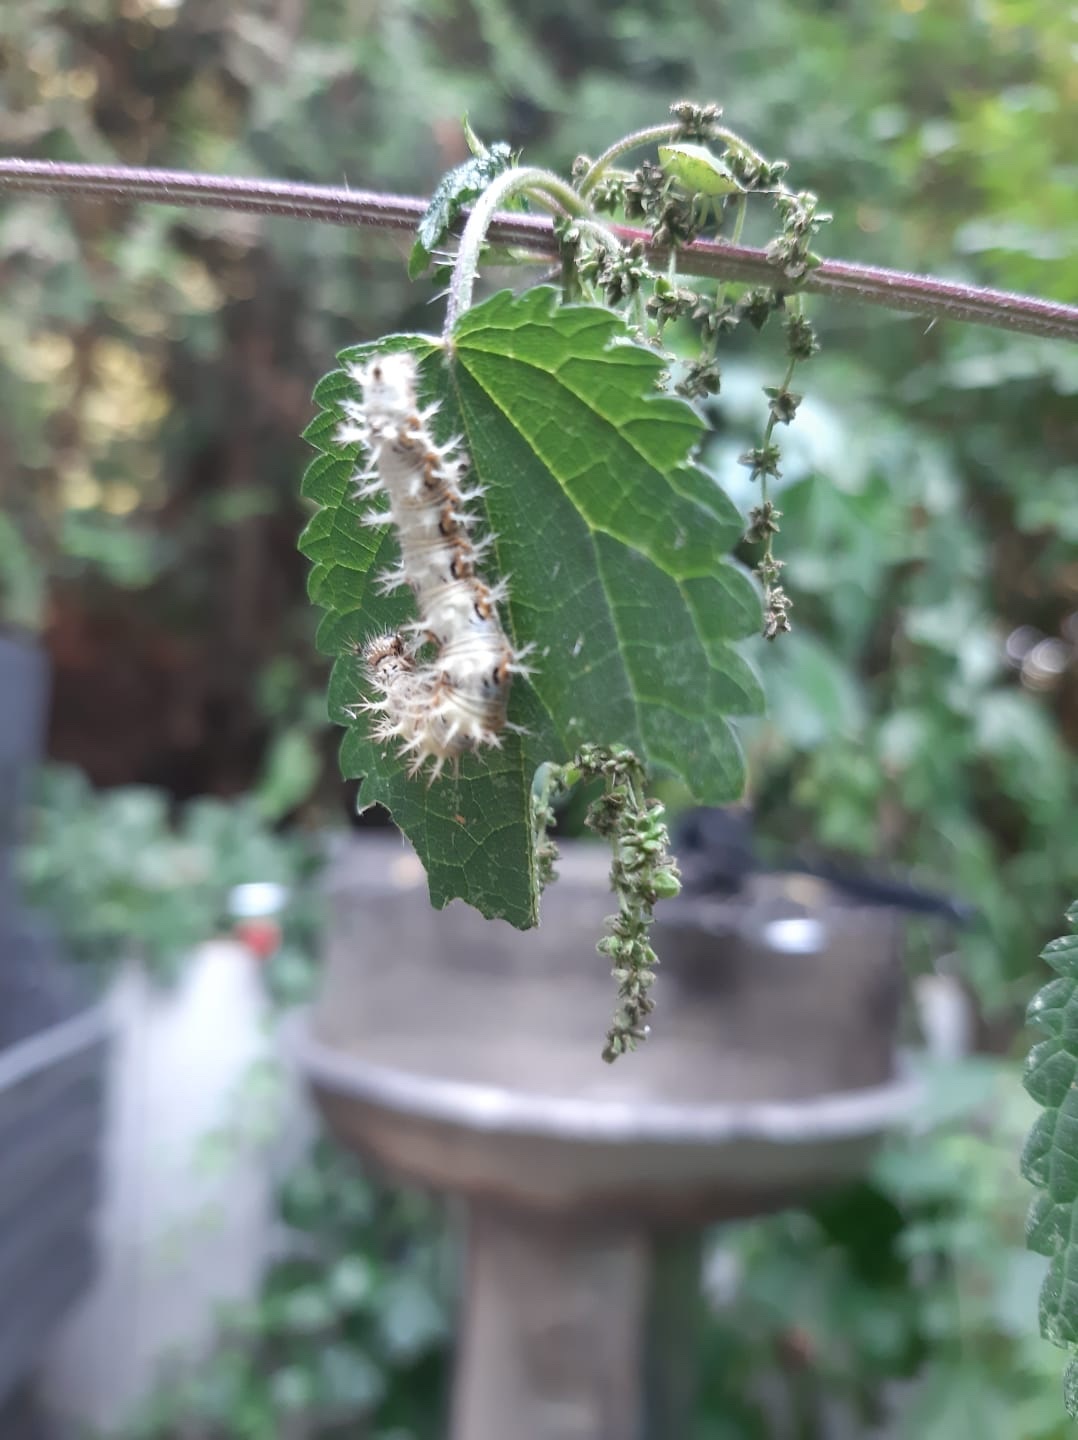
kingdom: Animalia
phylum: Arthropoda
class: Insecta
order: Lepidoptera
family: Nymphalidae
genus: Polygonia
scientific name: Polygonia c-album
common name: Comma
